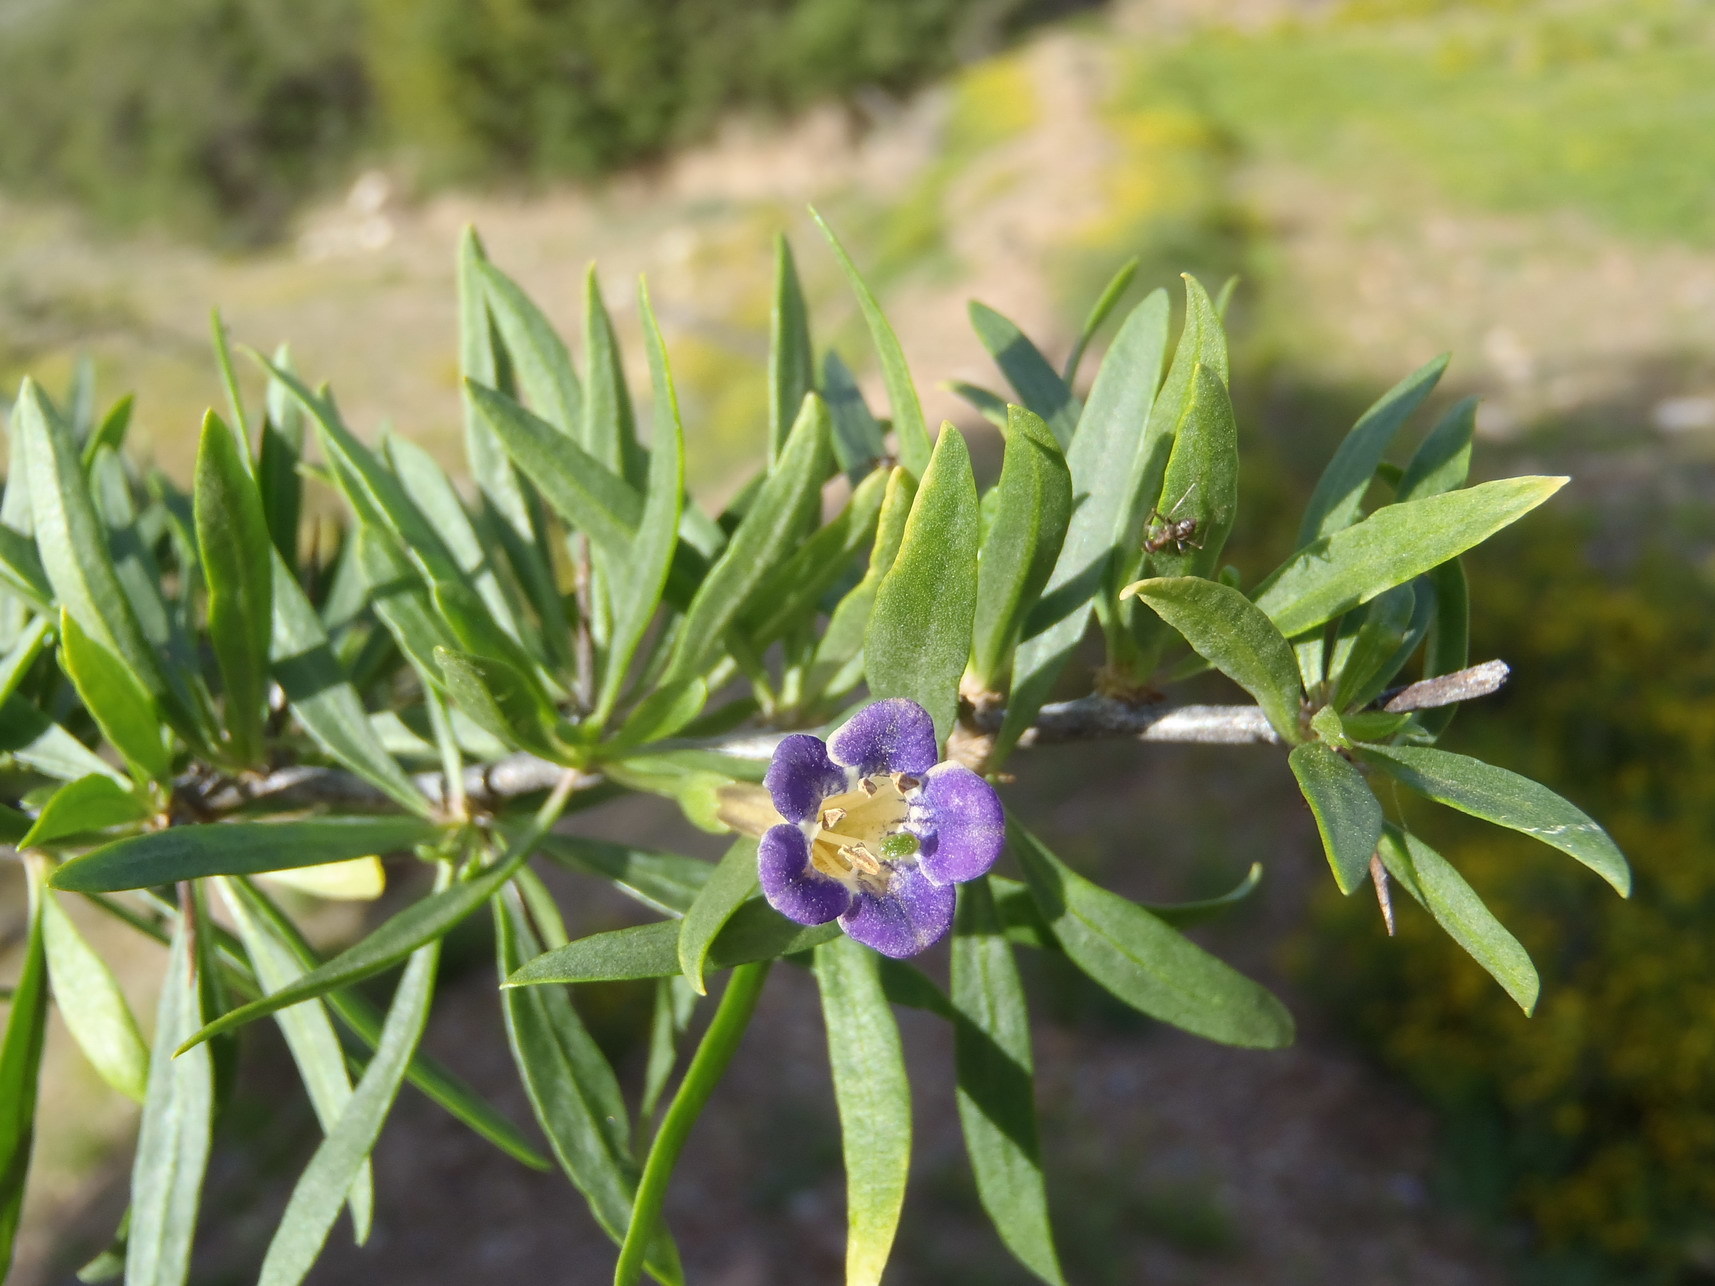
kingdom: Plantae
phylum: Tracheophyta
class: Magnoliopsida
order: Solanales
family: Solanaceae
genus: Lycium
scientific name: Lycium oxycarpum
